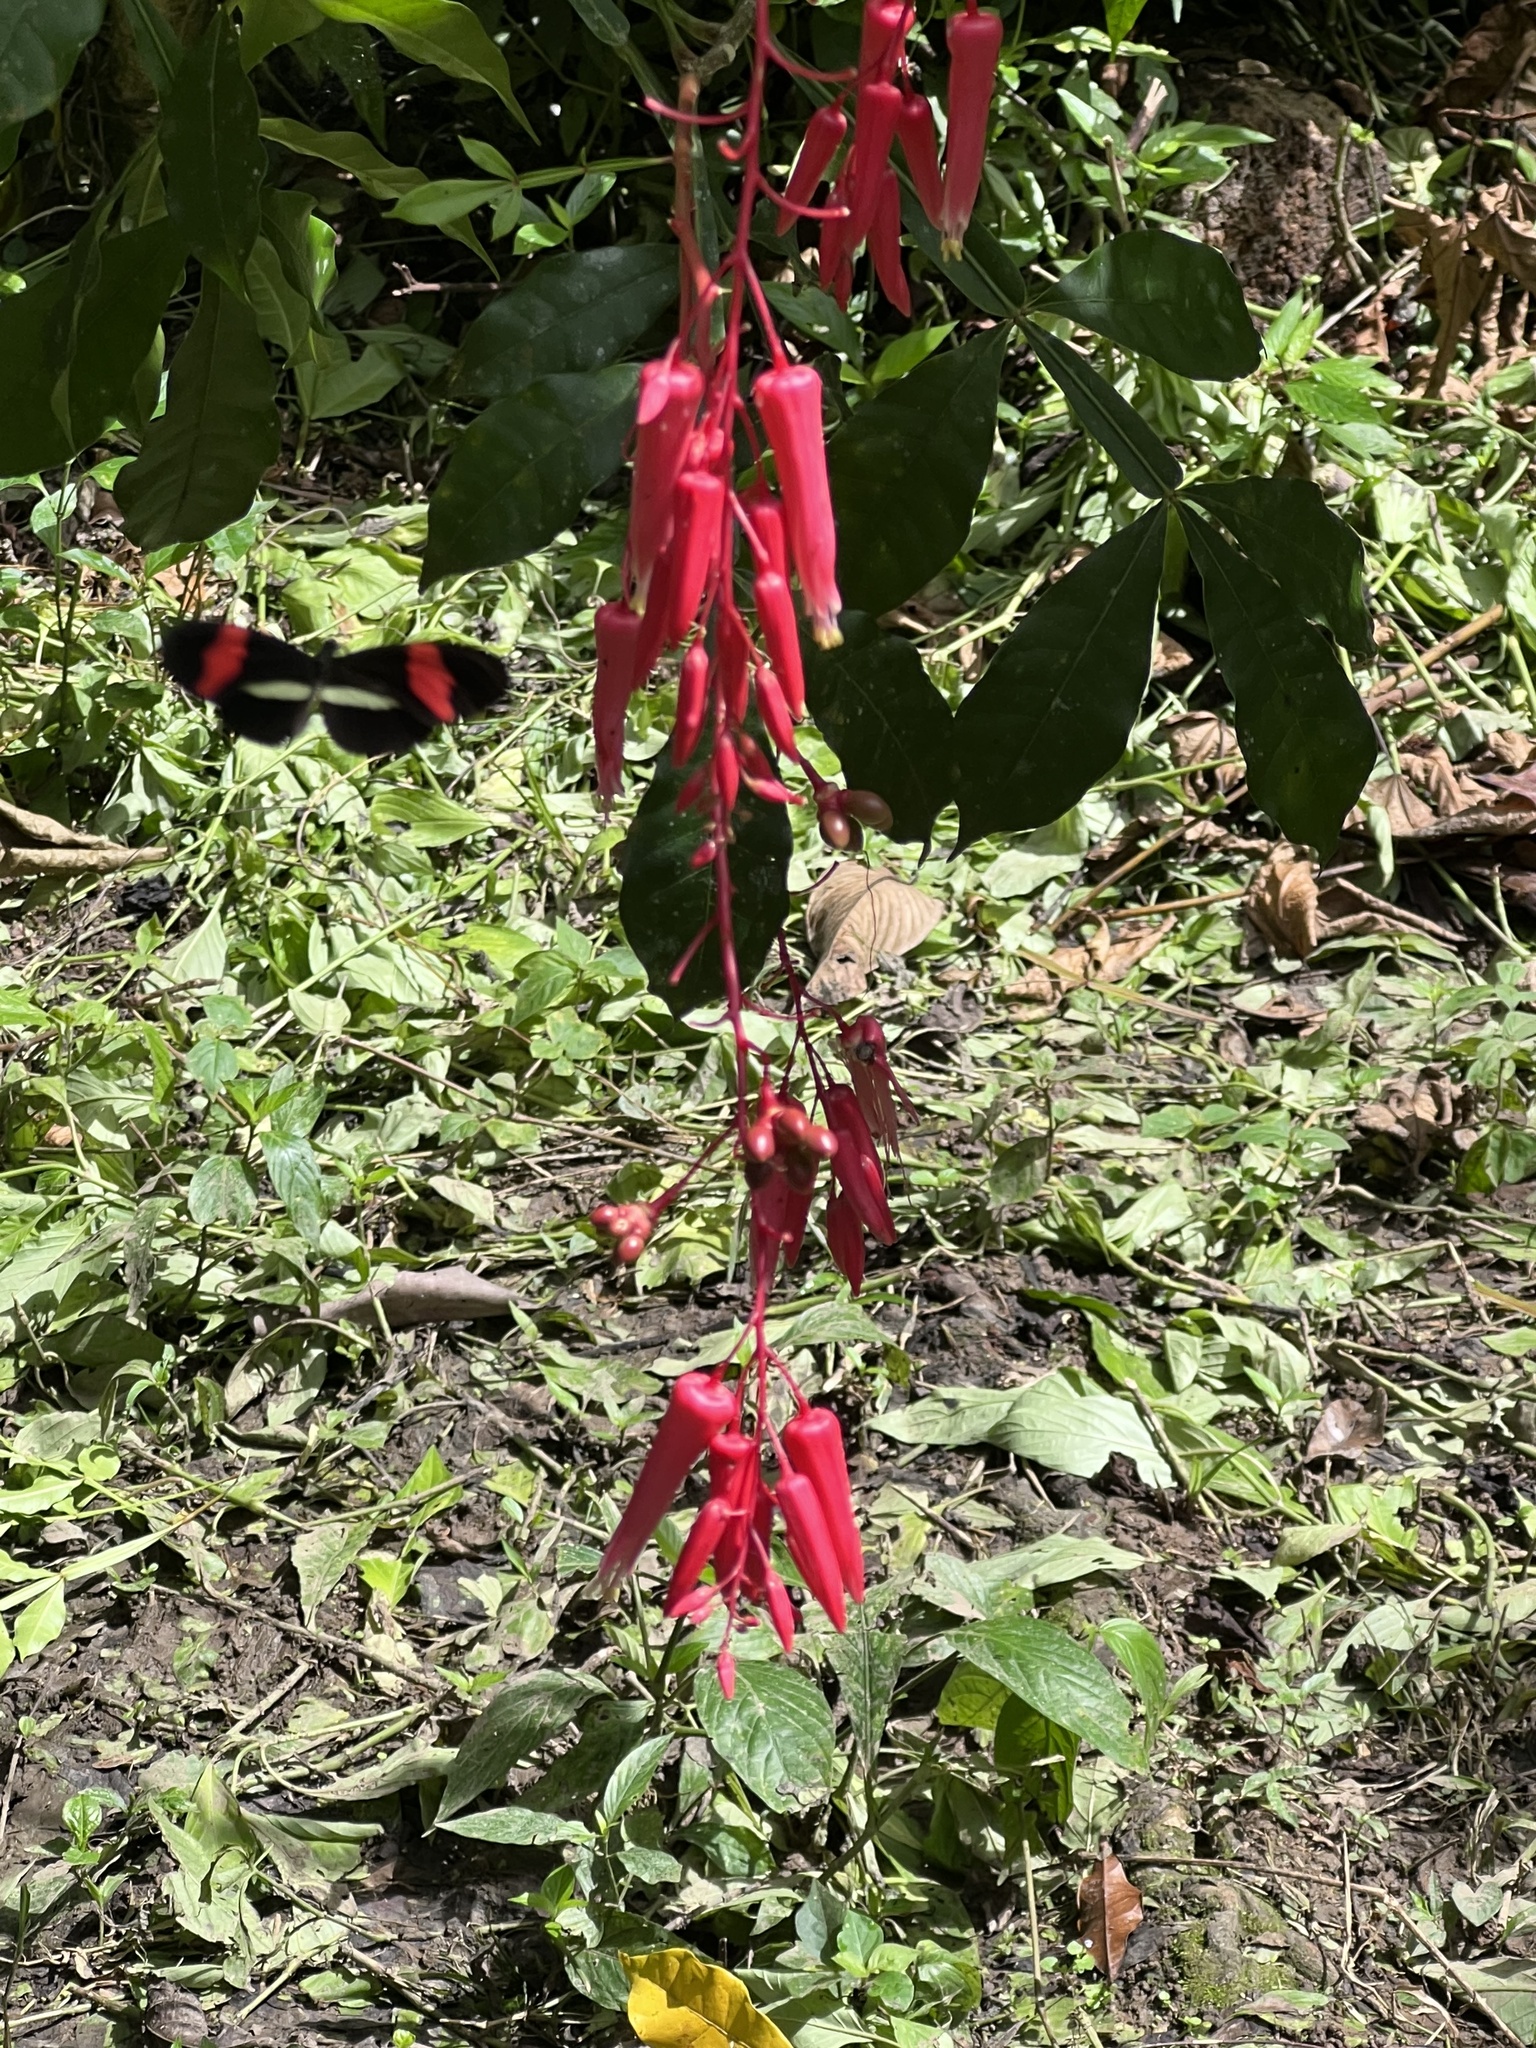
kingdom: Animalia
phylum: Arthropoda
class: Insecta
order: Lepidoptera
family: Nymphalidae
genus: Tirumala
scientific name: Tirumala petiverana
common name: Blue monarch
